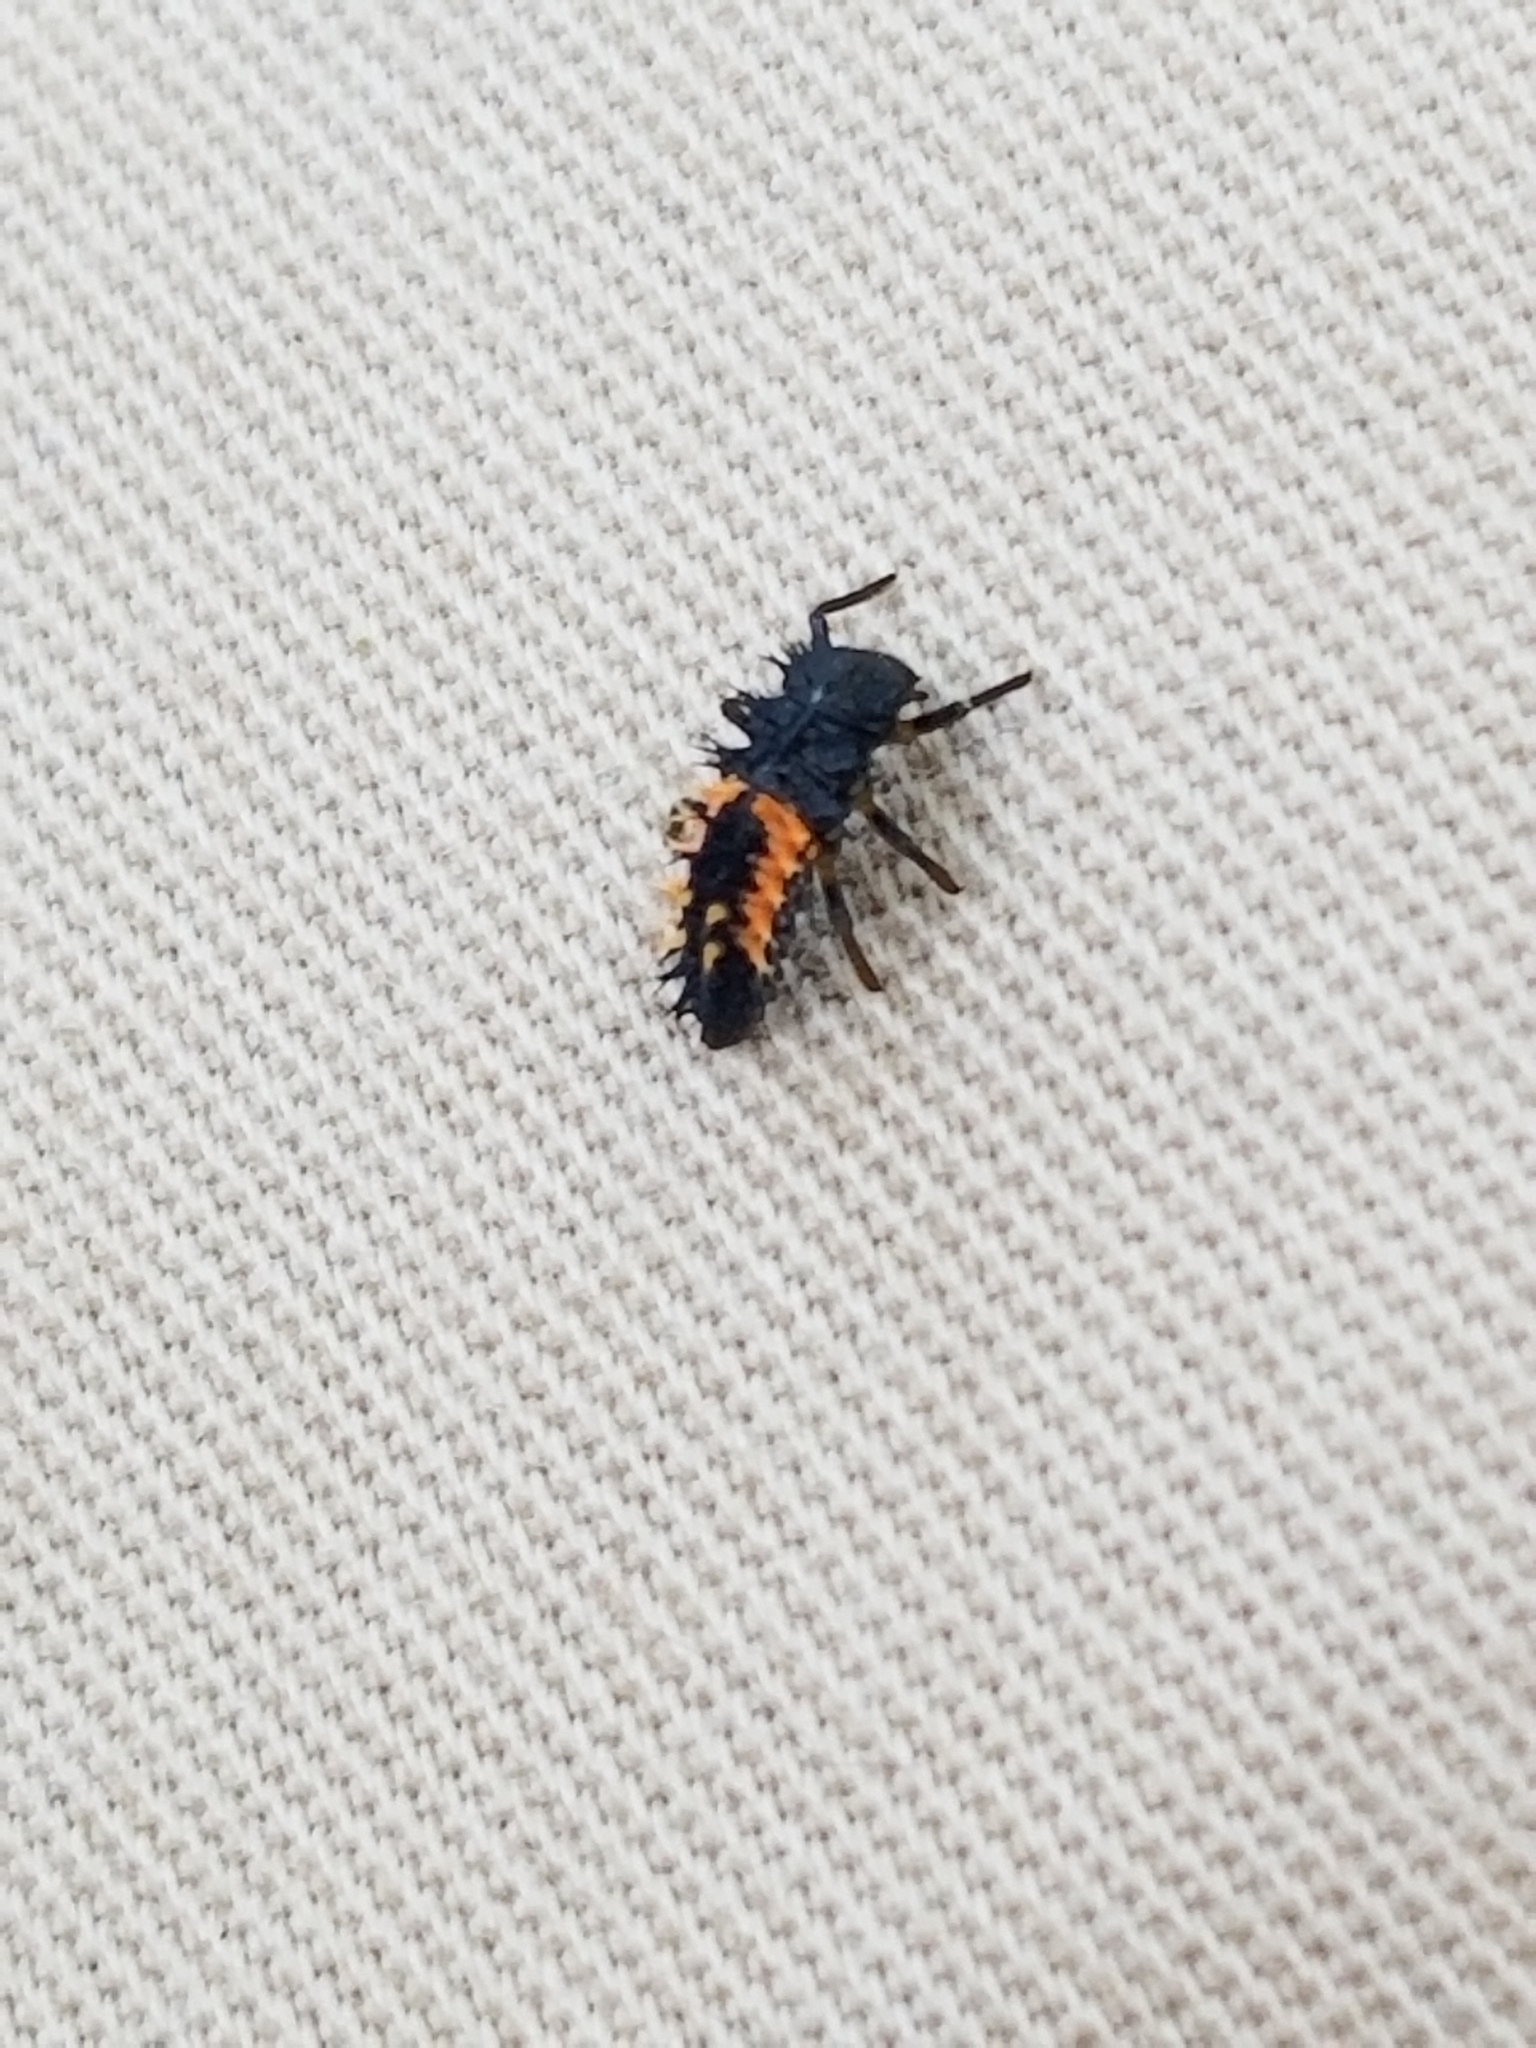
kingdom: Animalia
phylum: Arthropoda
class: Insecta
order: Coleoptera
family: Coccinellidae
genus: Harmonia
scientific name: Harmonia axyridis
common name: Harlequin ladybird
